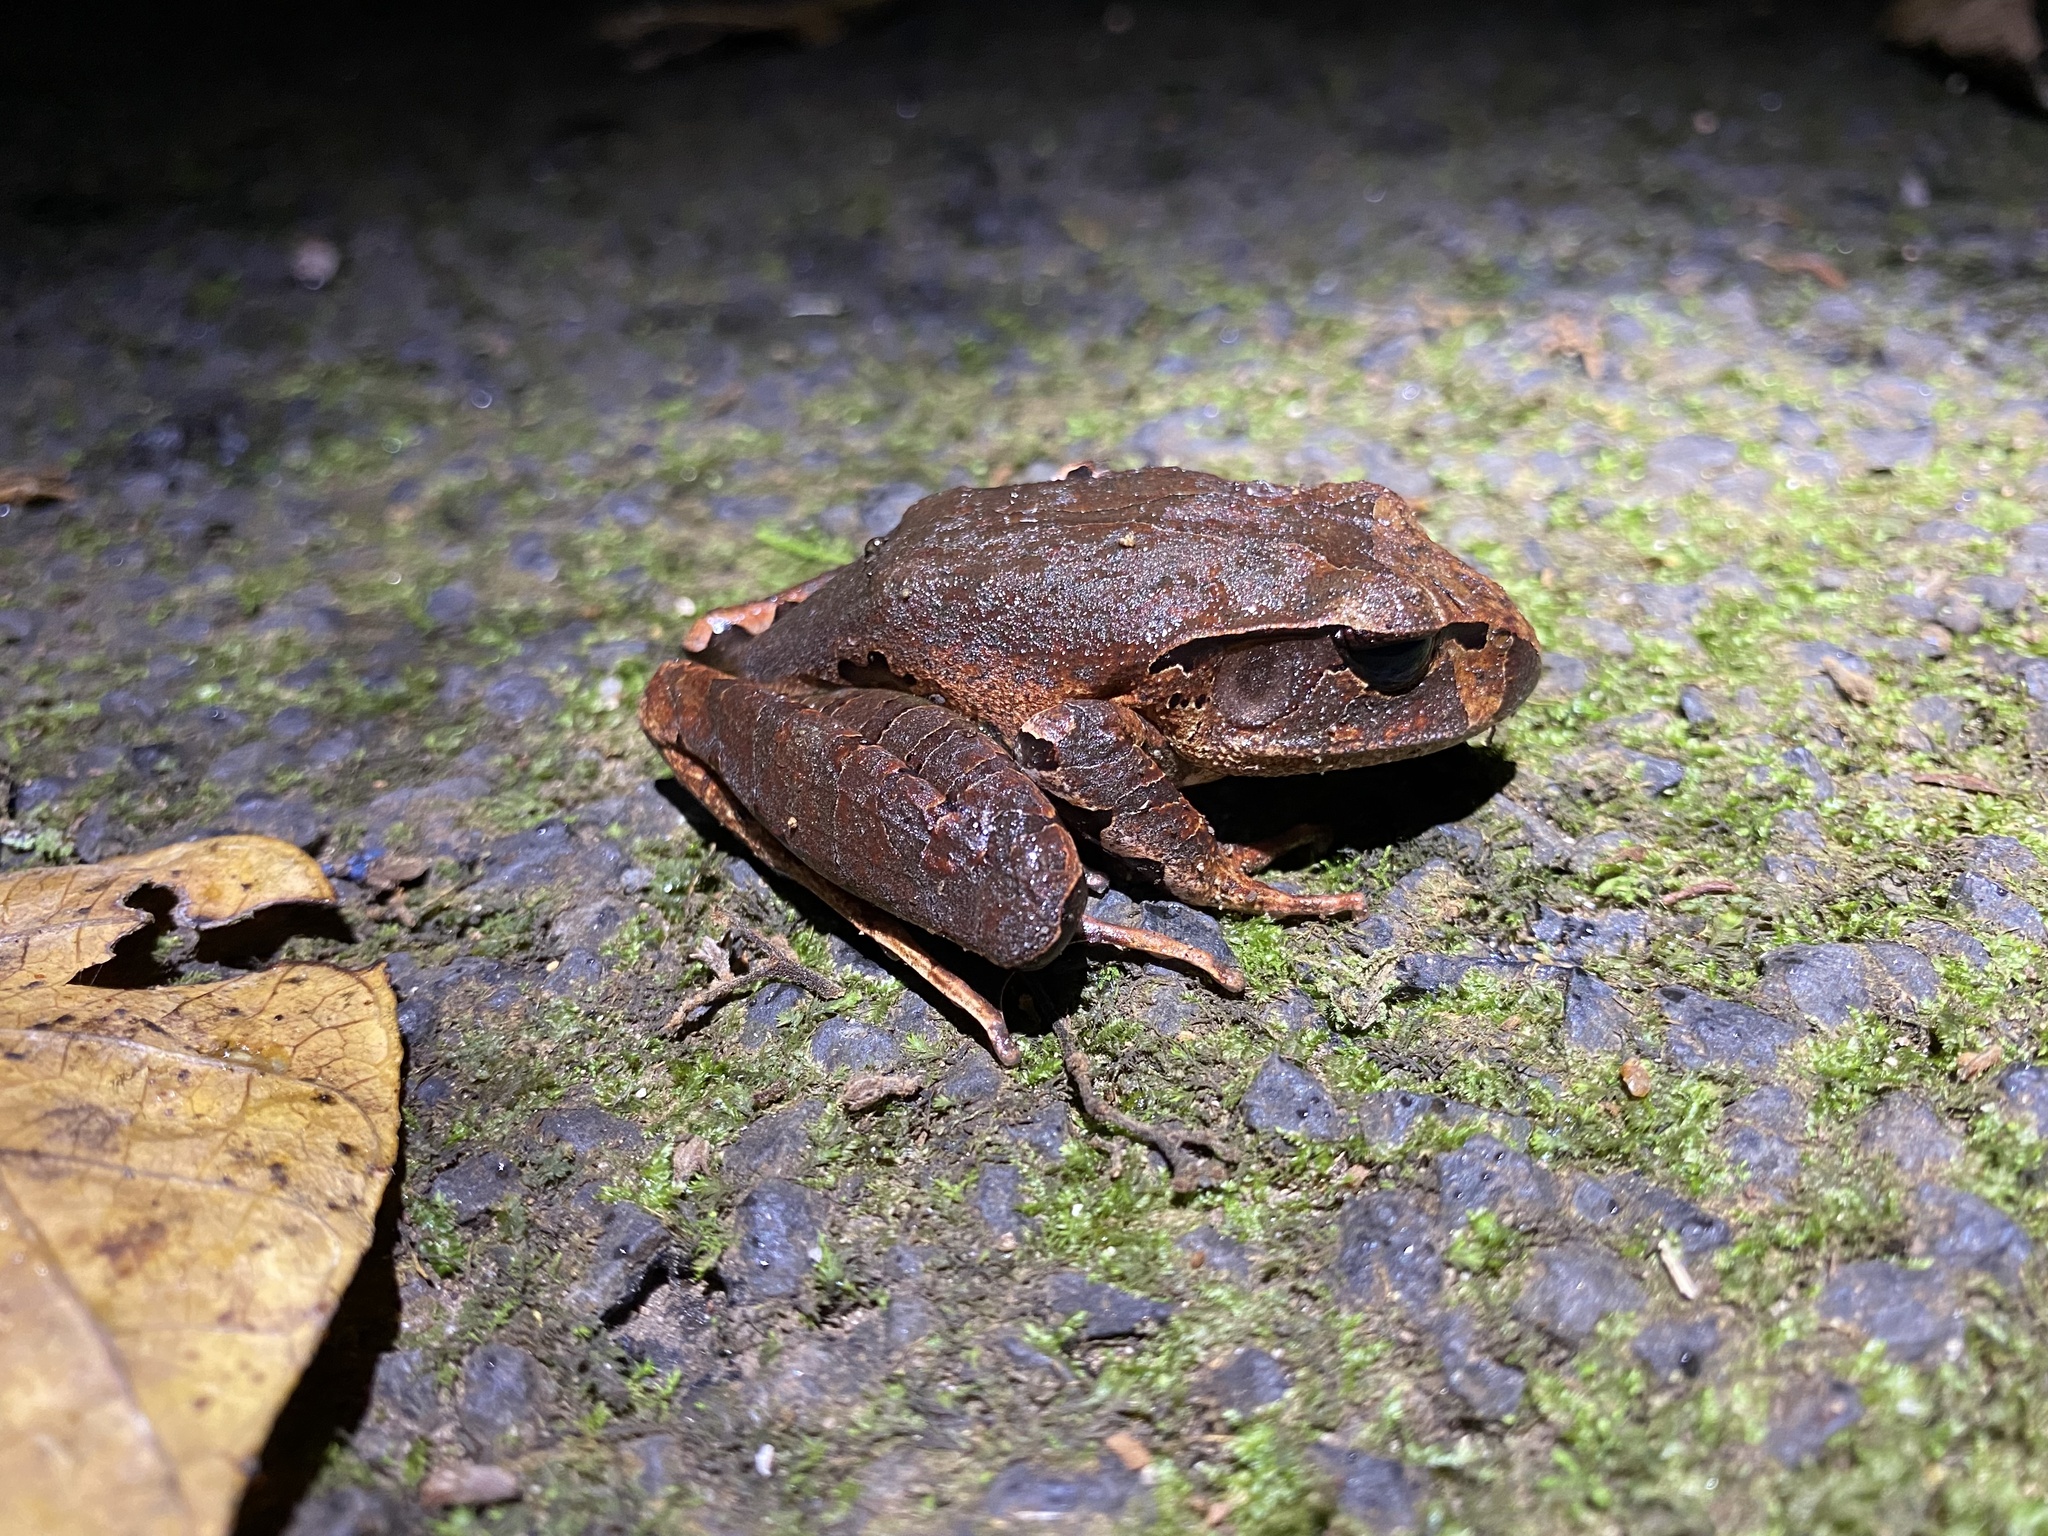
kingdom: Animalia
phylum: Chordata
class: Amphibia
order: Anura
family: Myobatrachidae
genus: Mixophyes
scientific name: Mixophyes schevilli
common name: Northern barred frog
